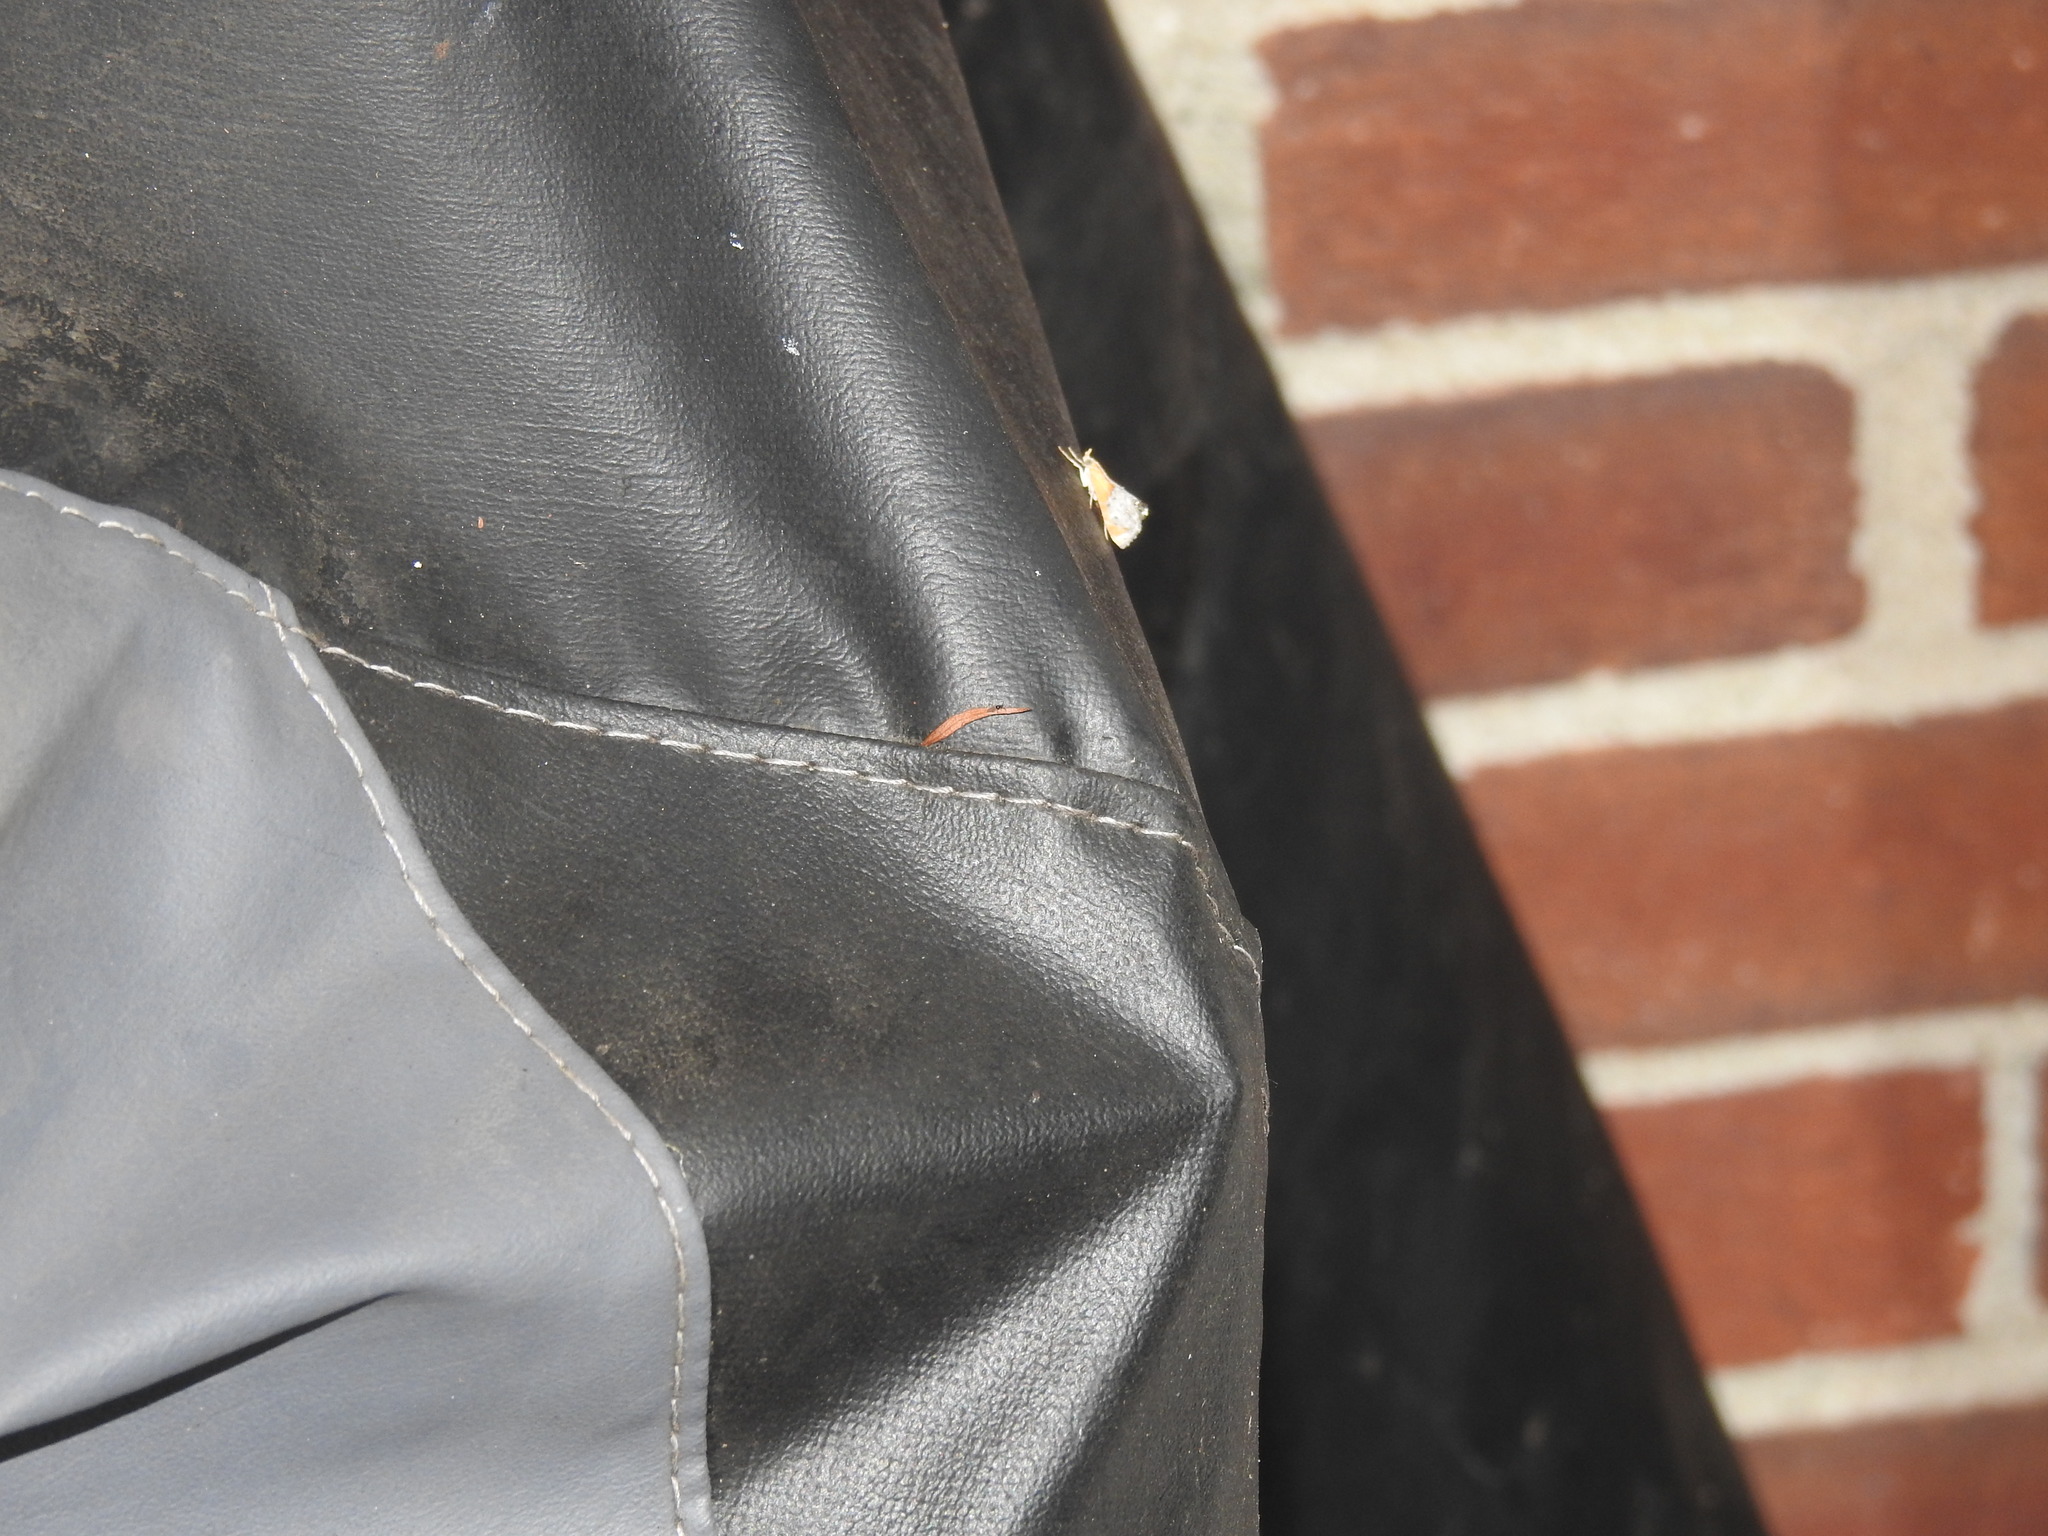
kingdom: Animalia
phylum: Arthropoda
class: Insecta
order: Lepidoptera
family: Crambidae
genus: Chalcoela
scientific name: Chalcoela iphitalis
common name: Sooty-winged chalcoela moth
